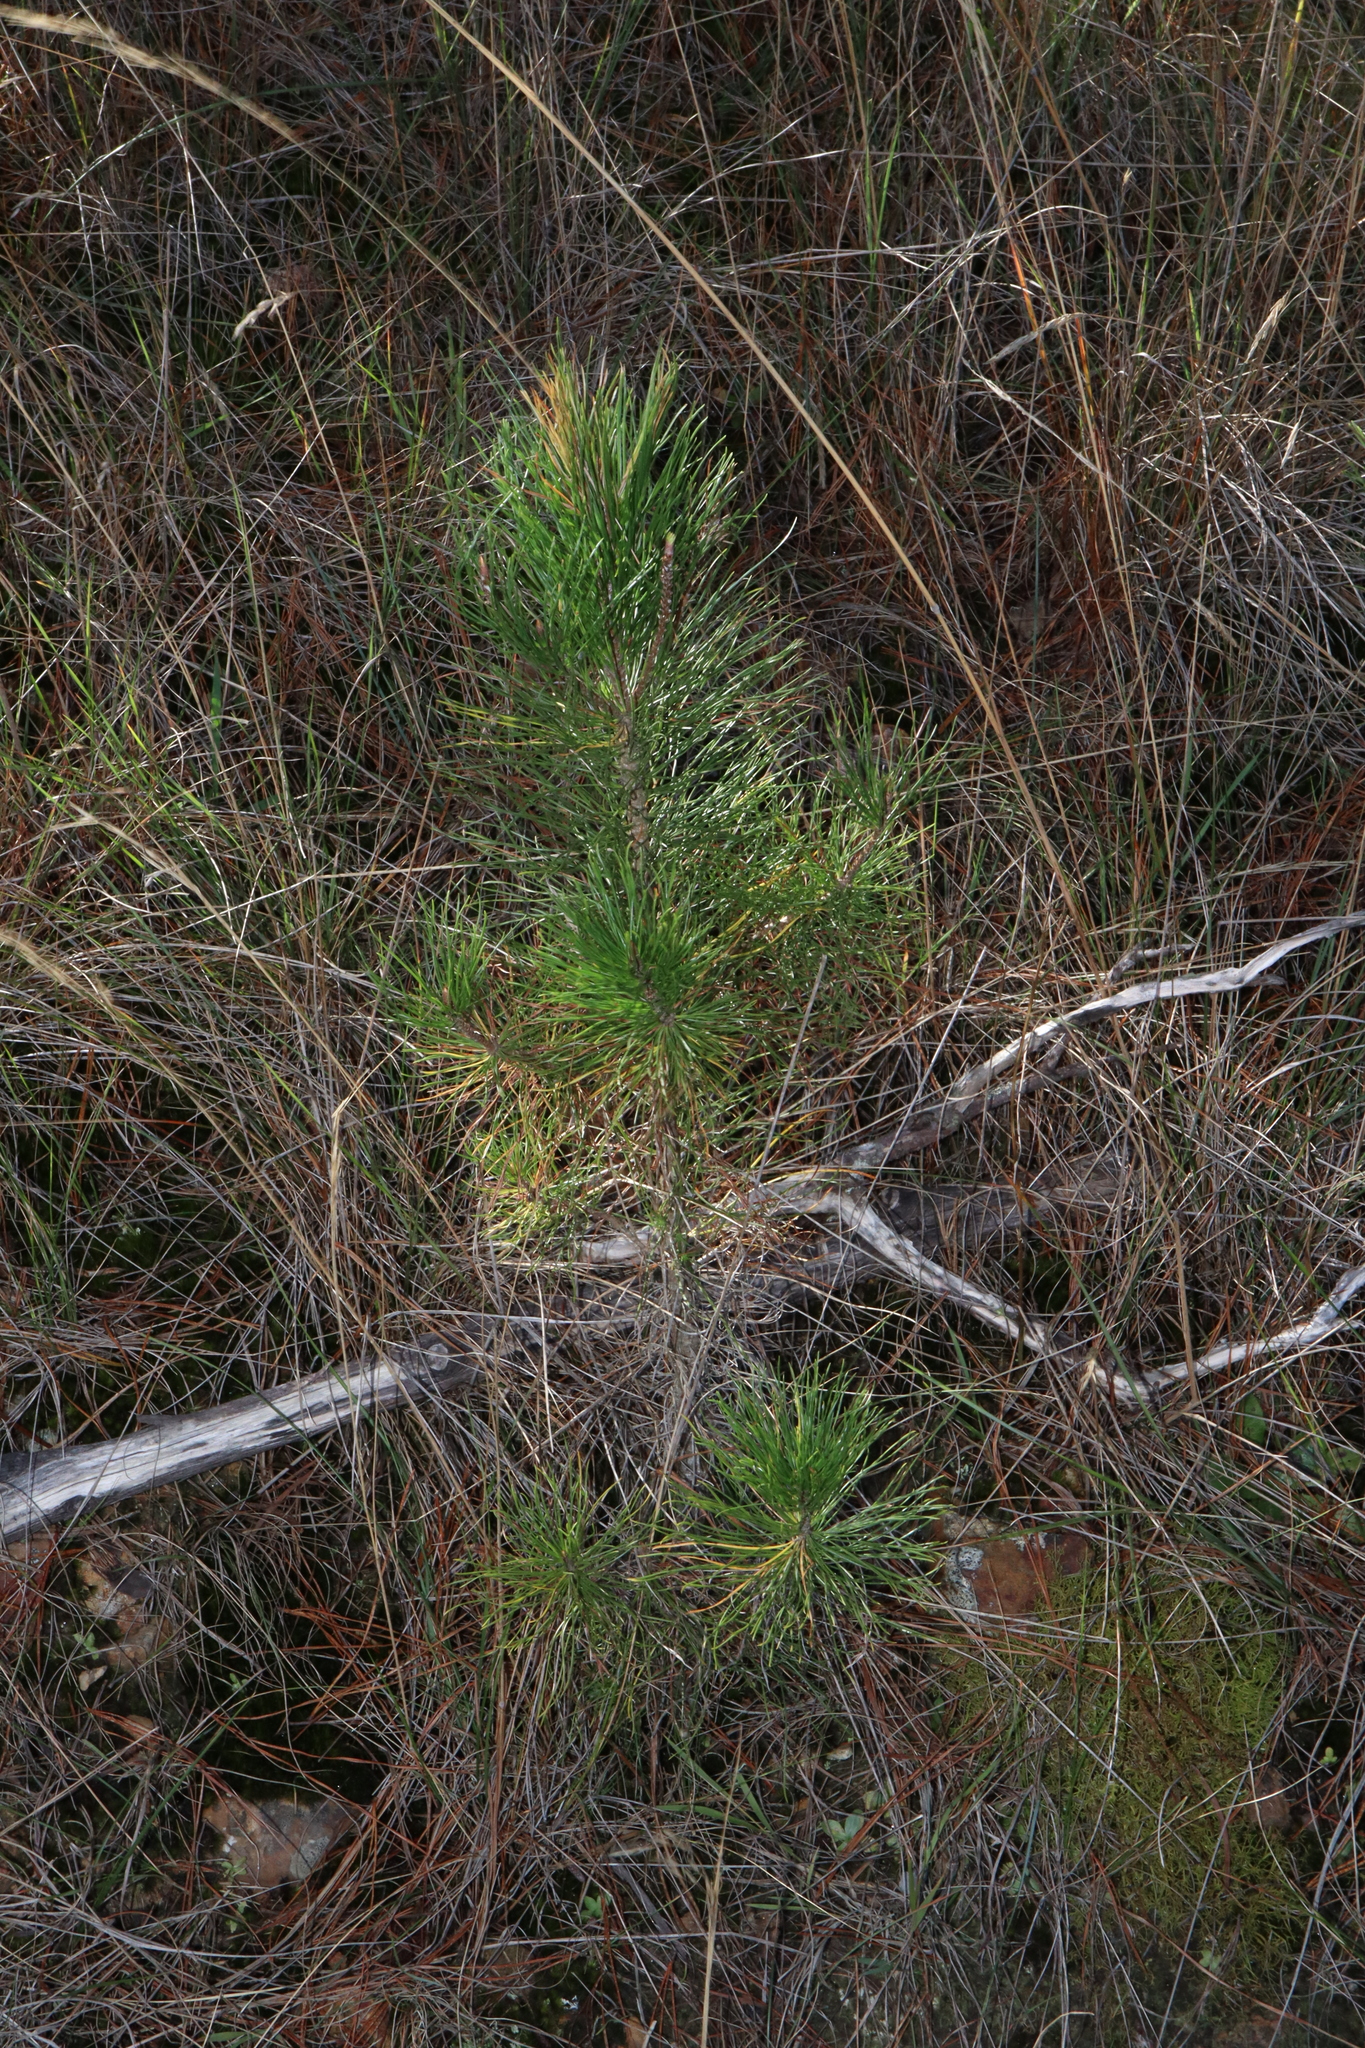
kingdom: Plantae
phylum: Tracheophyta
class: Pinopsida
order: Pinales
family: Pinaceae
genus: Pinus
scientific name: Pinus radiata
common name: Monterey pine
